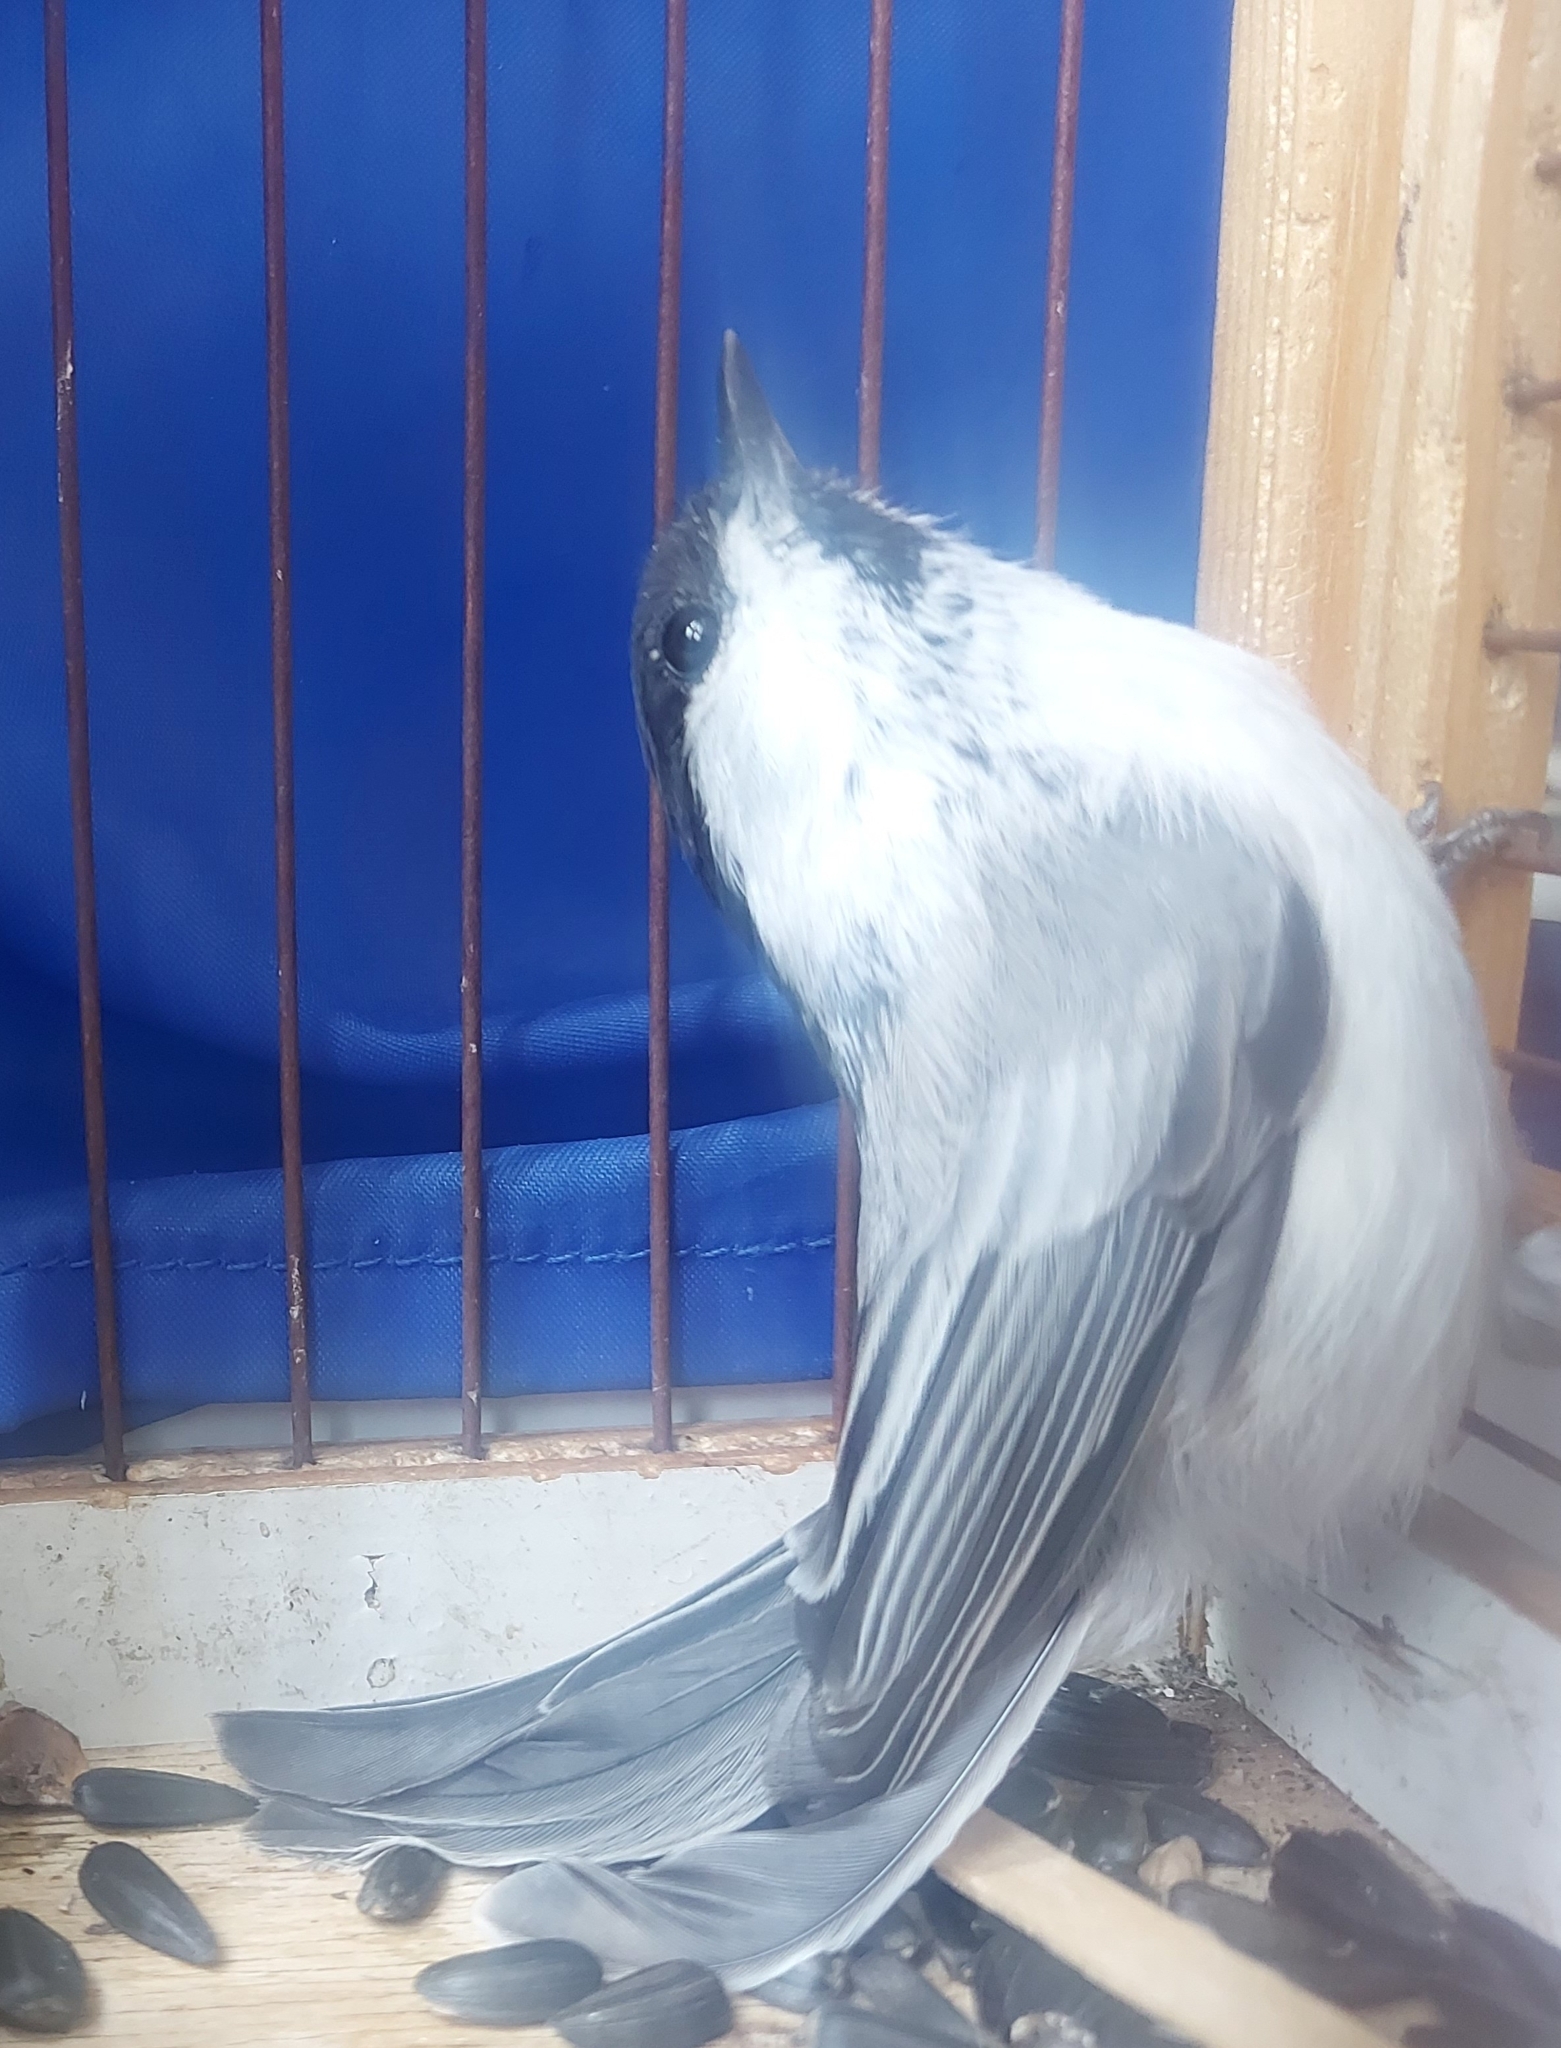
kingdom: Animalia
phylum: Chordata
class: Aves
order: Passeriformes
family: Paridae
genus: Poecile
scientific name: Poecile montanus
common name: Willow tit
